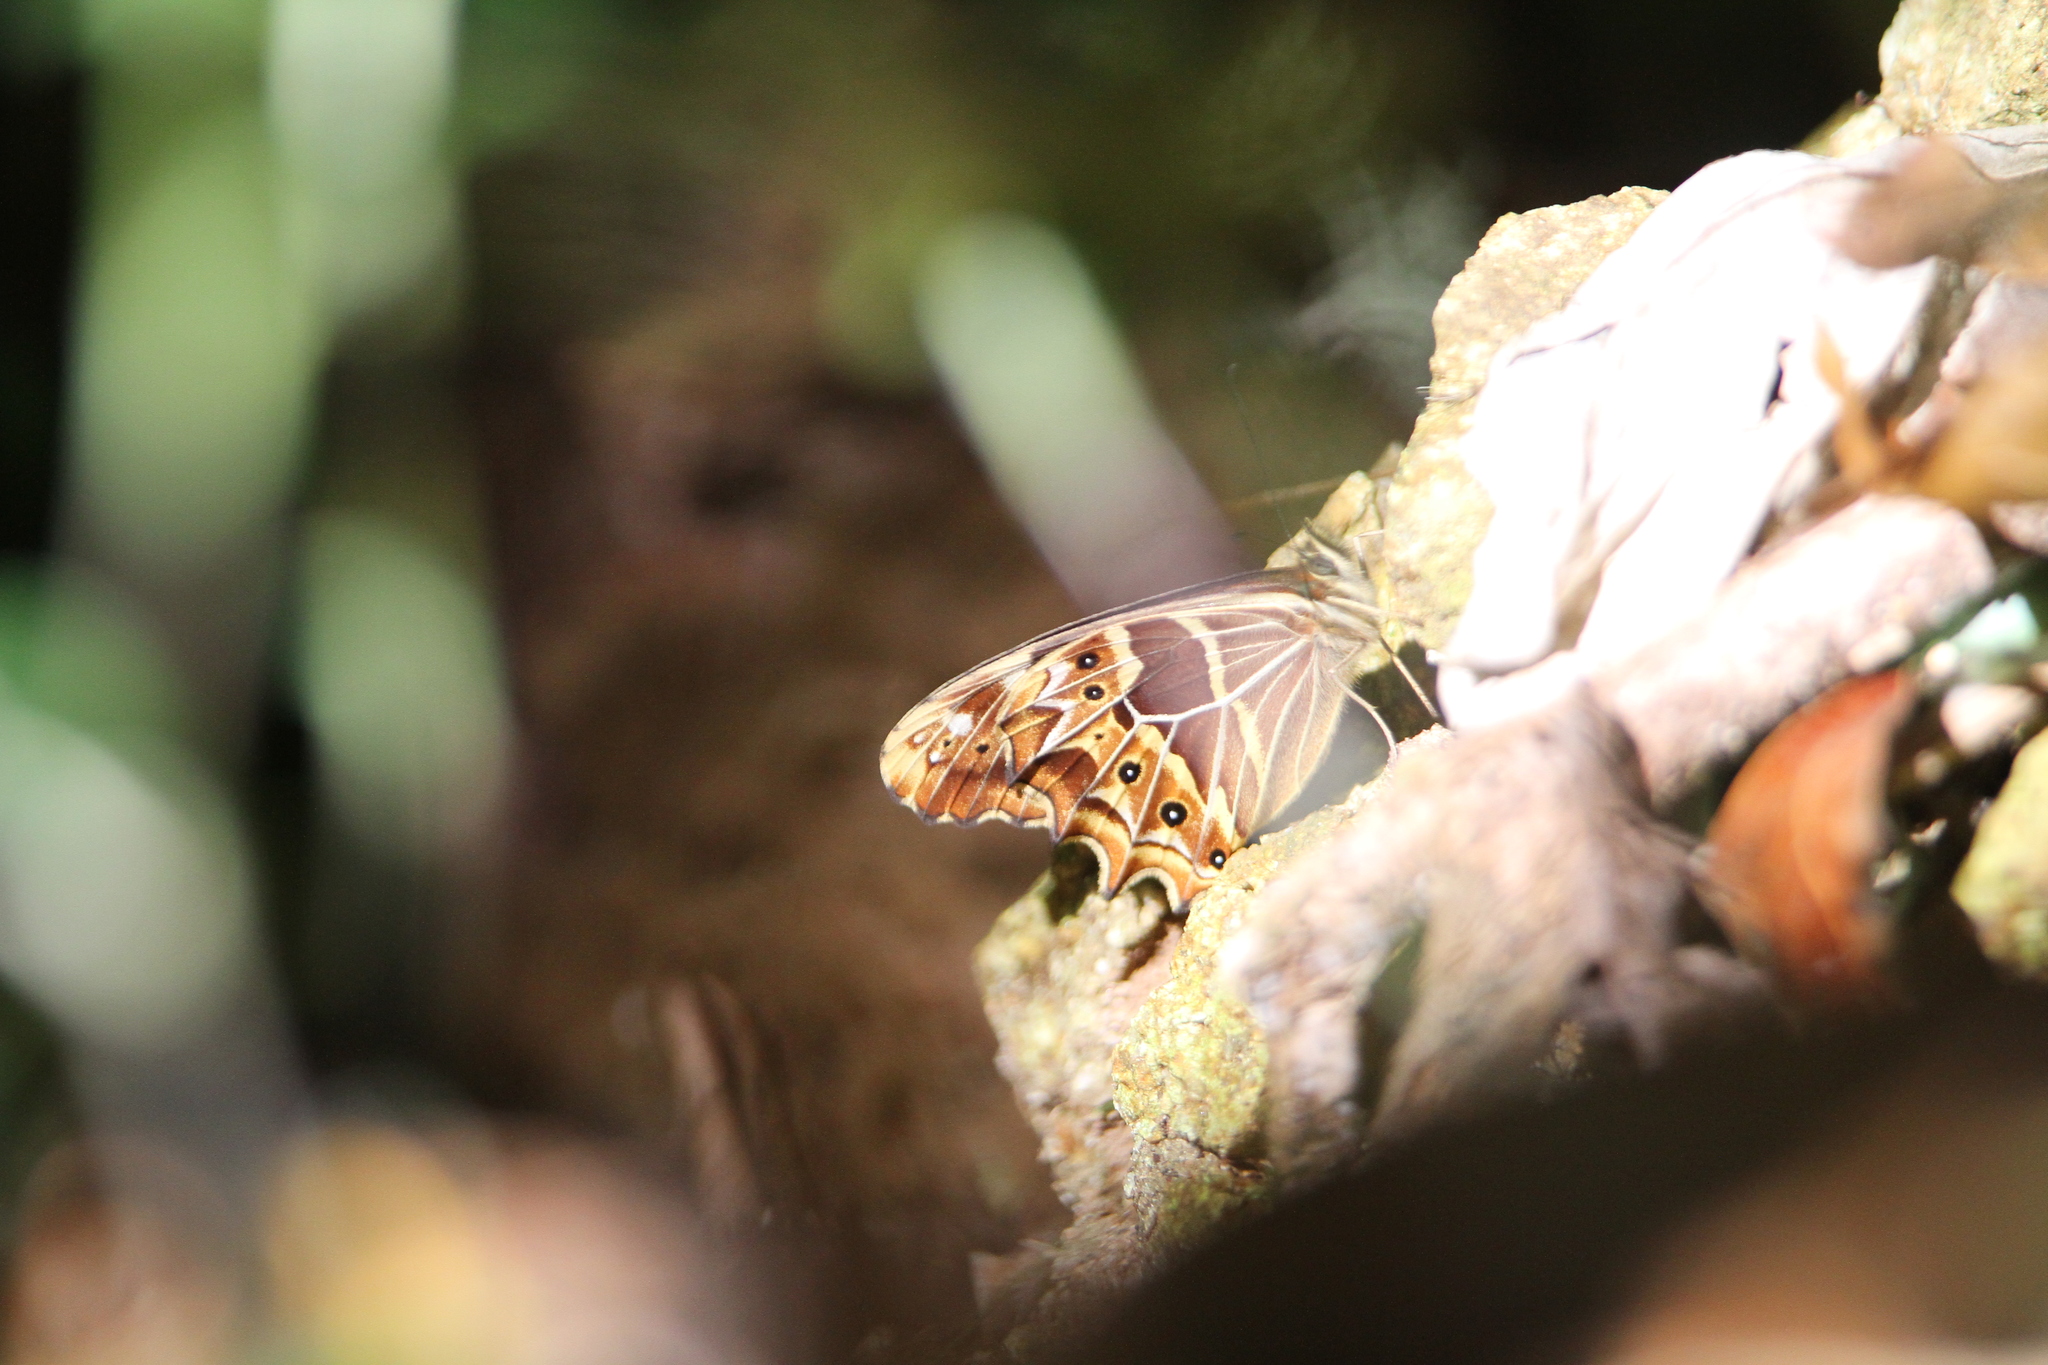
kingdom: Animalia
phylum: Arthropoda
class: Insecta
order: Lepidoptera
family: Nymphalidae
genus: Oxeoschistus
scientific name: Oxeoschistus hilara
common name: Dot-banded satyr
